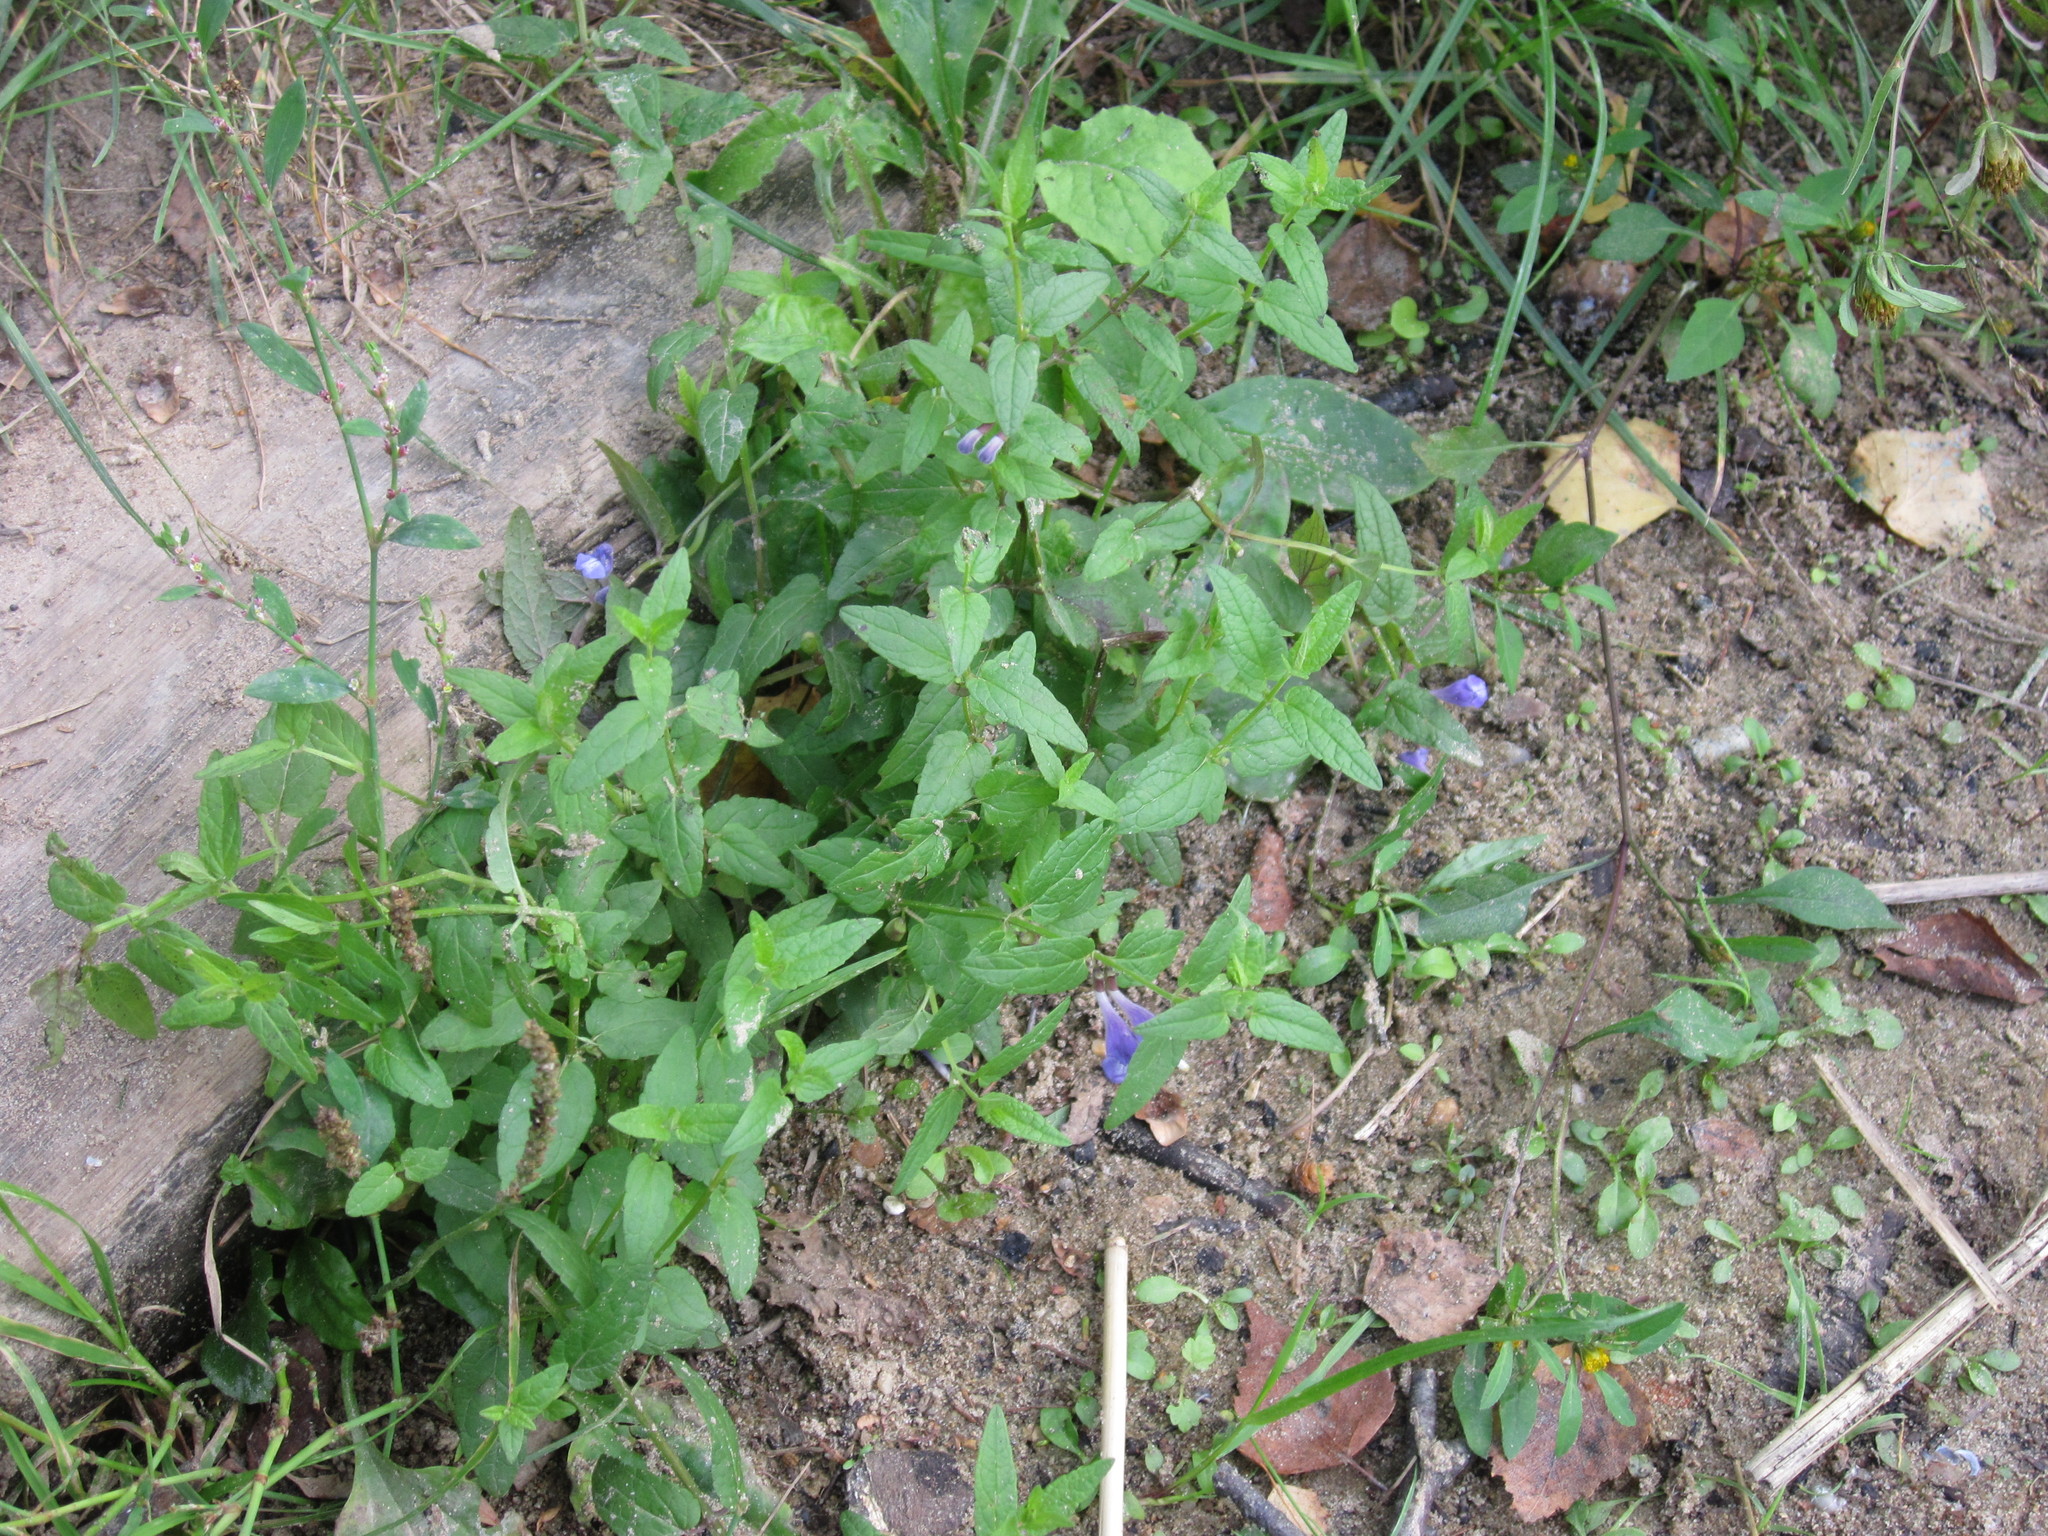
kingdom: Plantae
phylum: Tracheophyta
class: Magnoliopsida
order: Lamiales
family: Lamiaceae
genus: Scutellaria
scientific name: Scutellaria galericulata
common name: Skullcap
